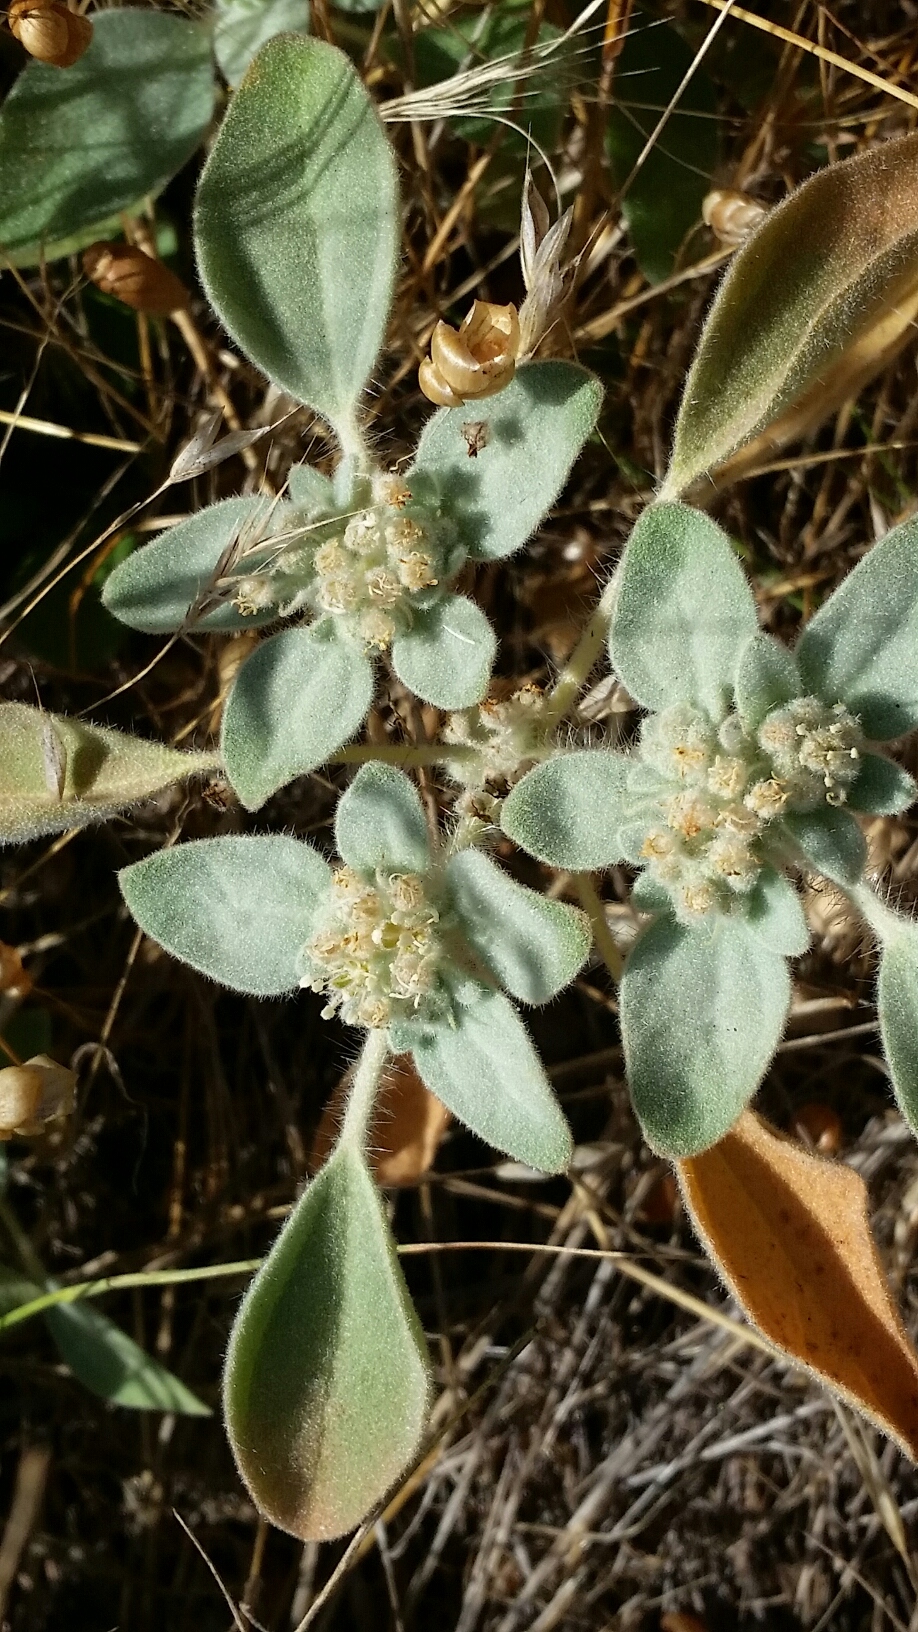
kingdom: Plantae
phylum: Tracheophyta
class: Magnoliopsida
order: Malpighiales
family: Euphorbiaceae
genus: Croton
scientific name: Croton setiger
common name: Dove weed
